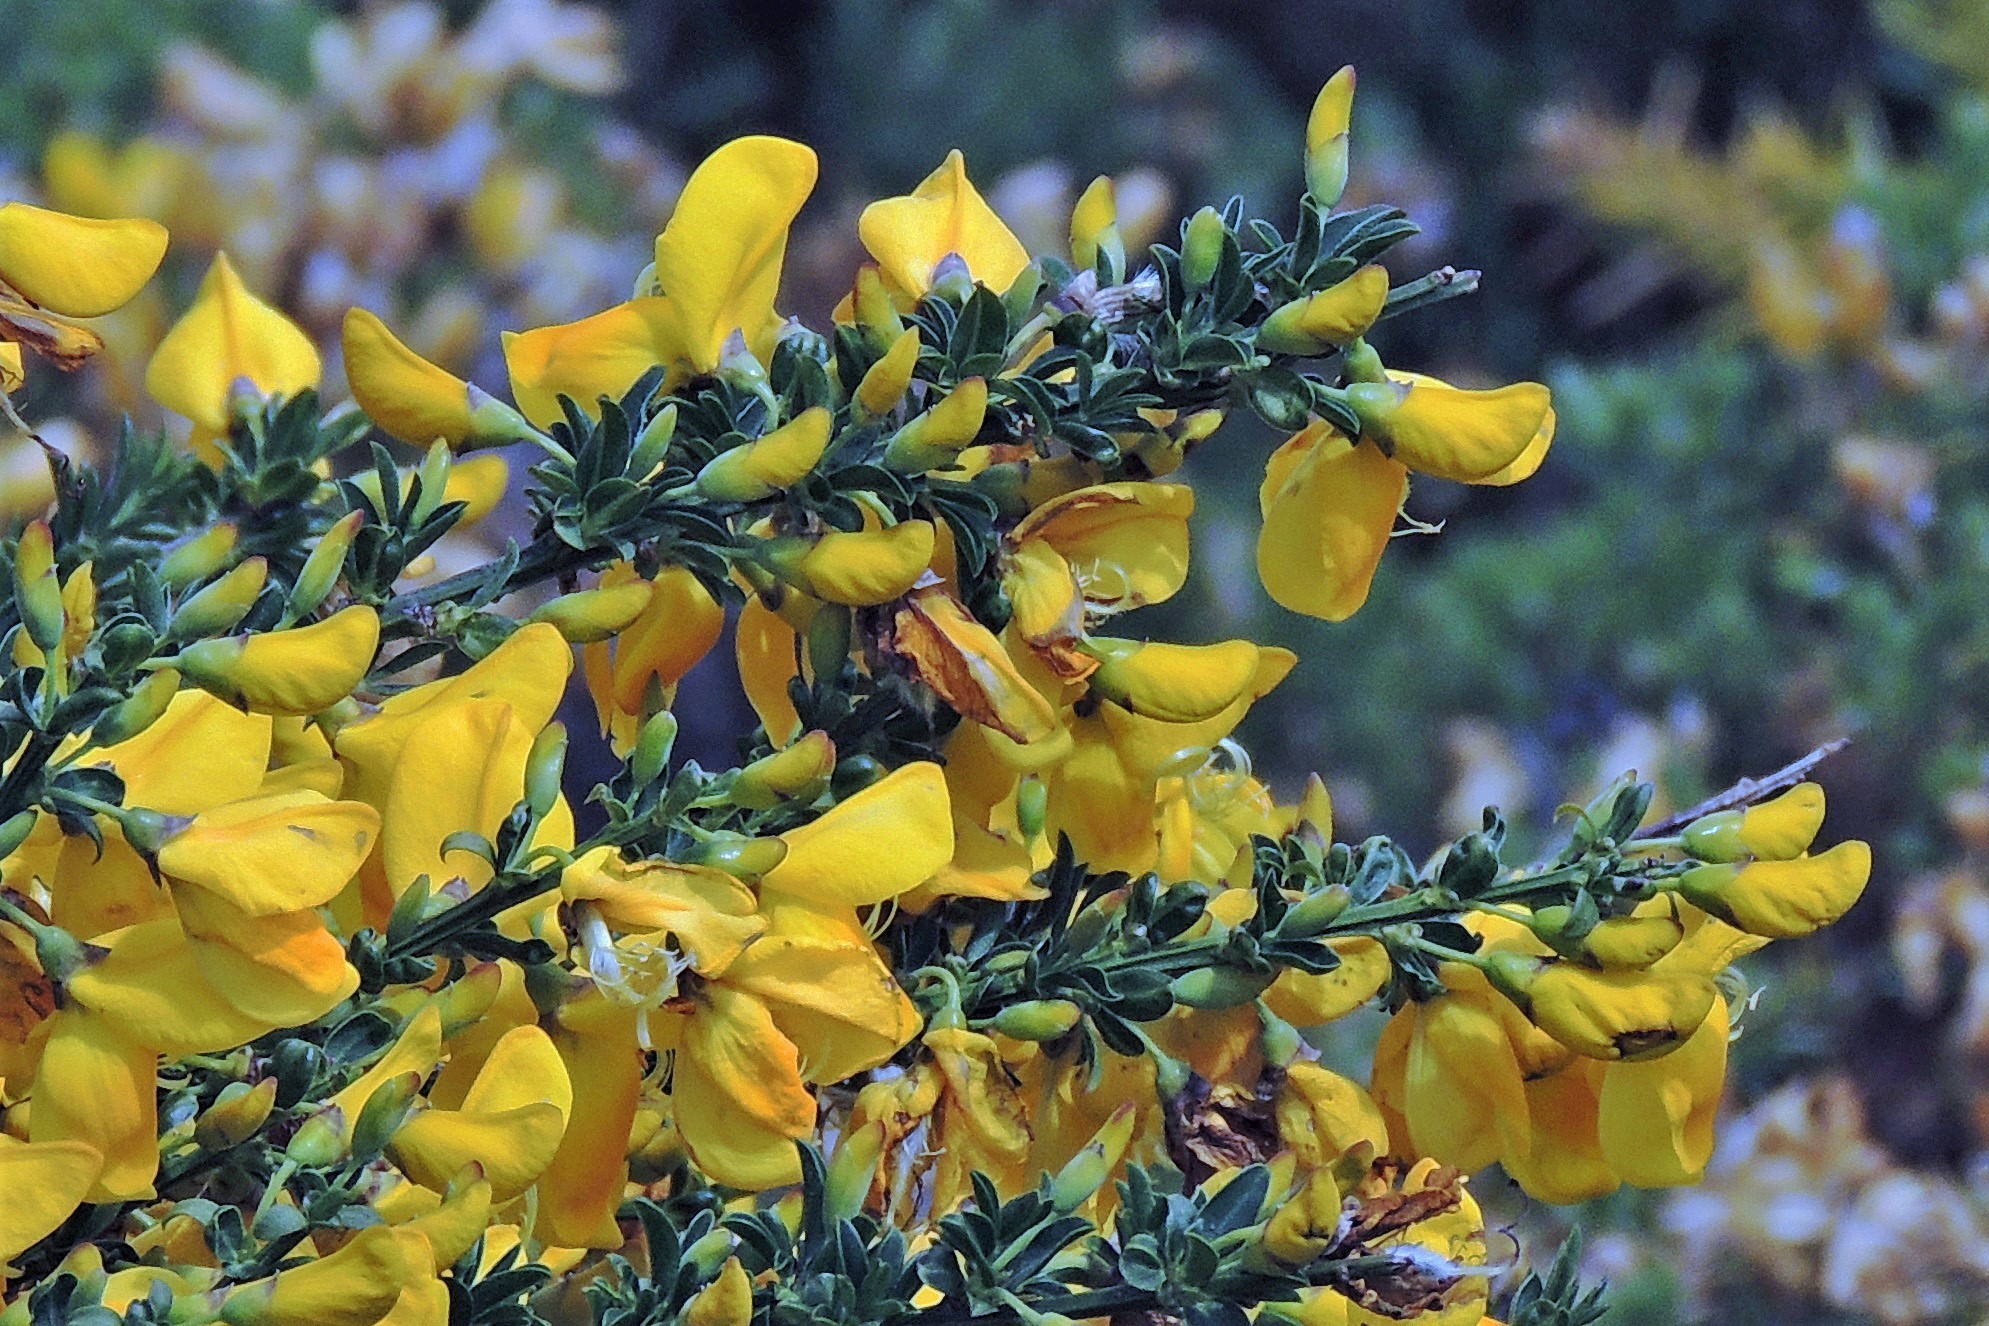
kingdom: Plantae
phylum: Tracheophyta
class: Magnoliopsida
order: Fabales
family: Fabaceae
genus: Cytisus
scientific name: Cytisus scoparius
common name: Scotch broom
